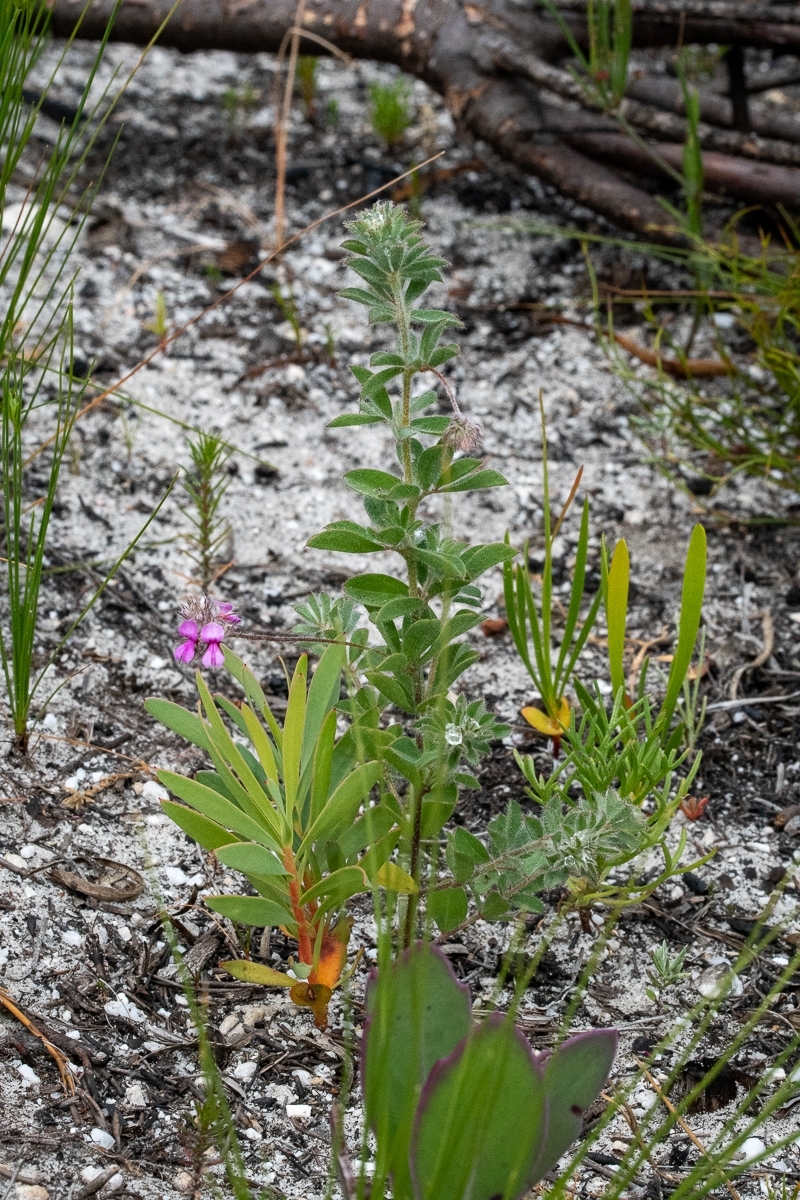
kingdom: Plantae
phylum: Tracheophyta
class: Magnoliopsida
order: Fabales
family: Fabaceae
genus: Indigofera
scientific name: Indigofera alopecuroides
